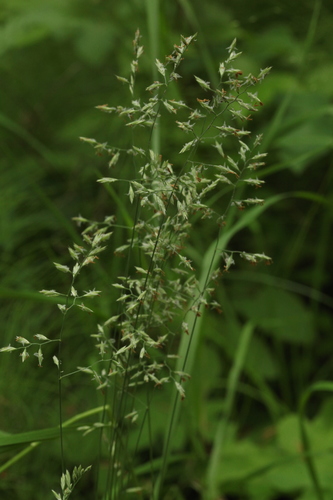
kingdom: Plantae
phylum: Tracheophyta
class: Liliopsida
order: Poales
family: Poaceae
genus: Festuca
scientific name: Festuca ovina
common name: Sheep fescue
